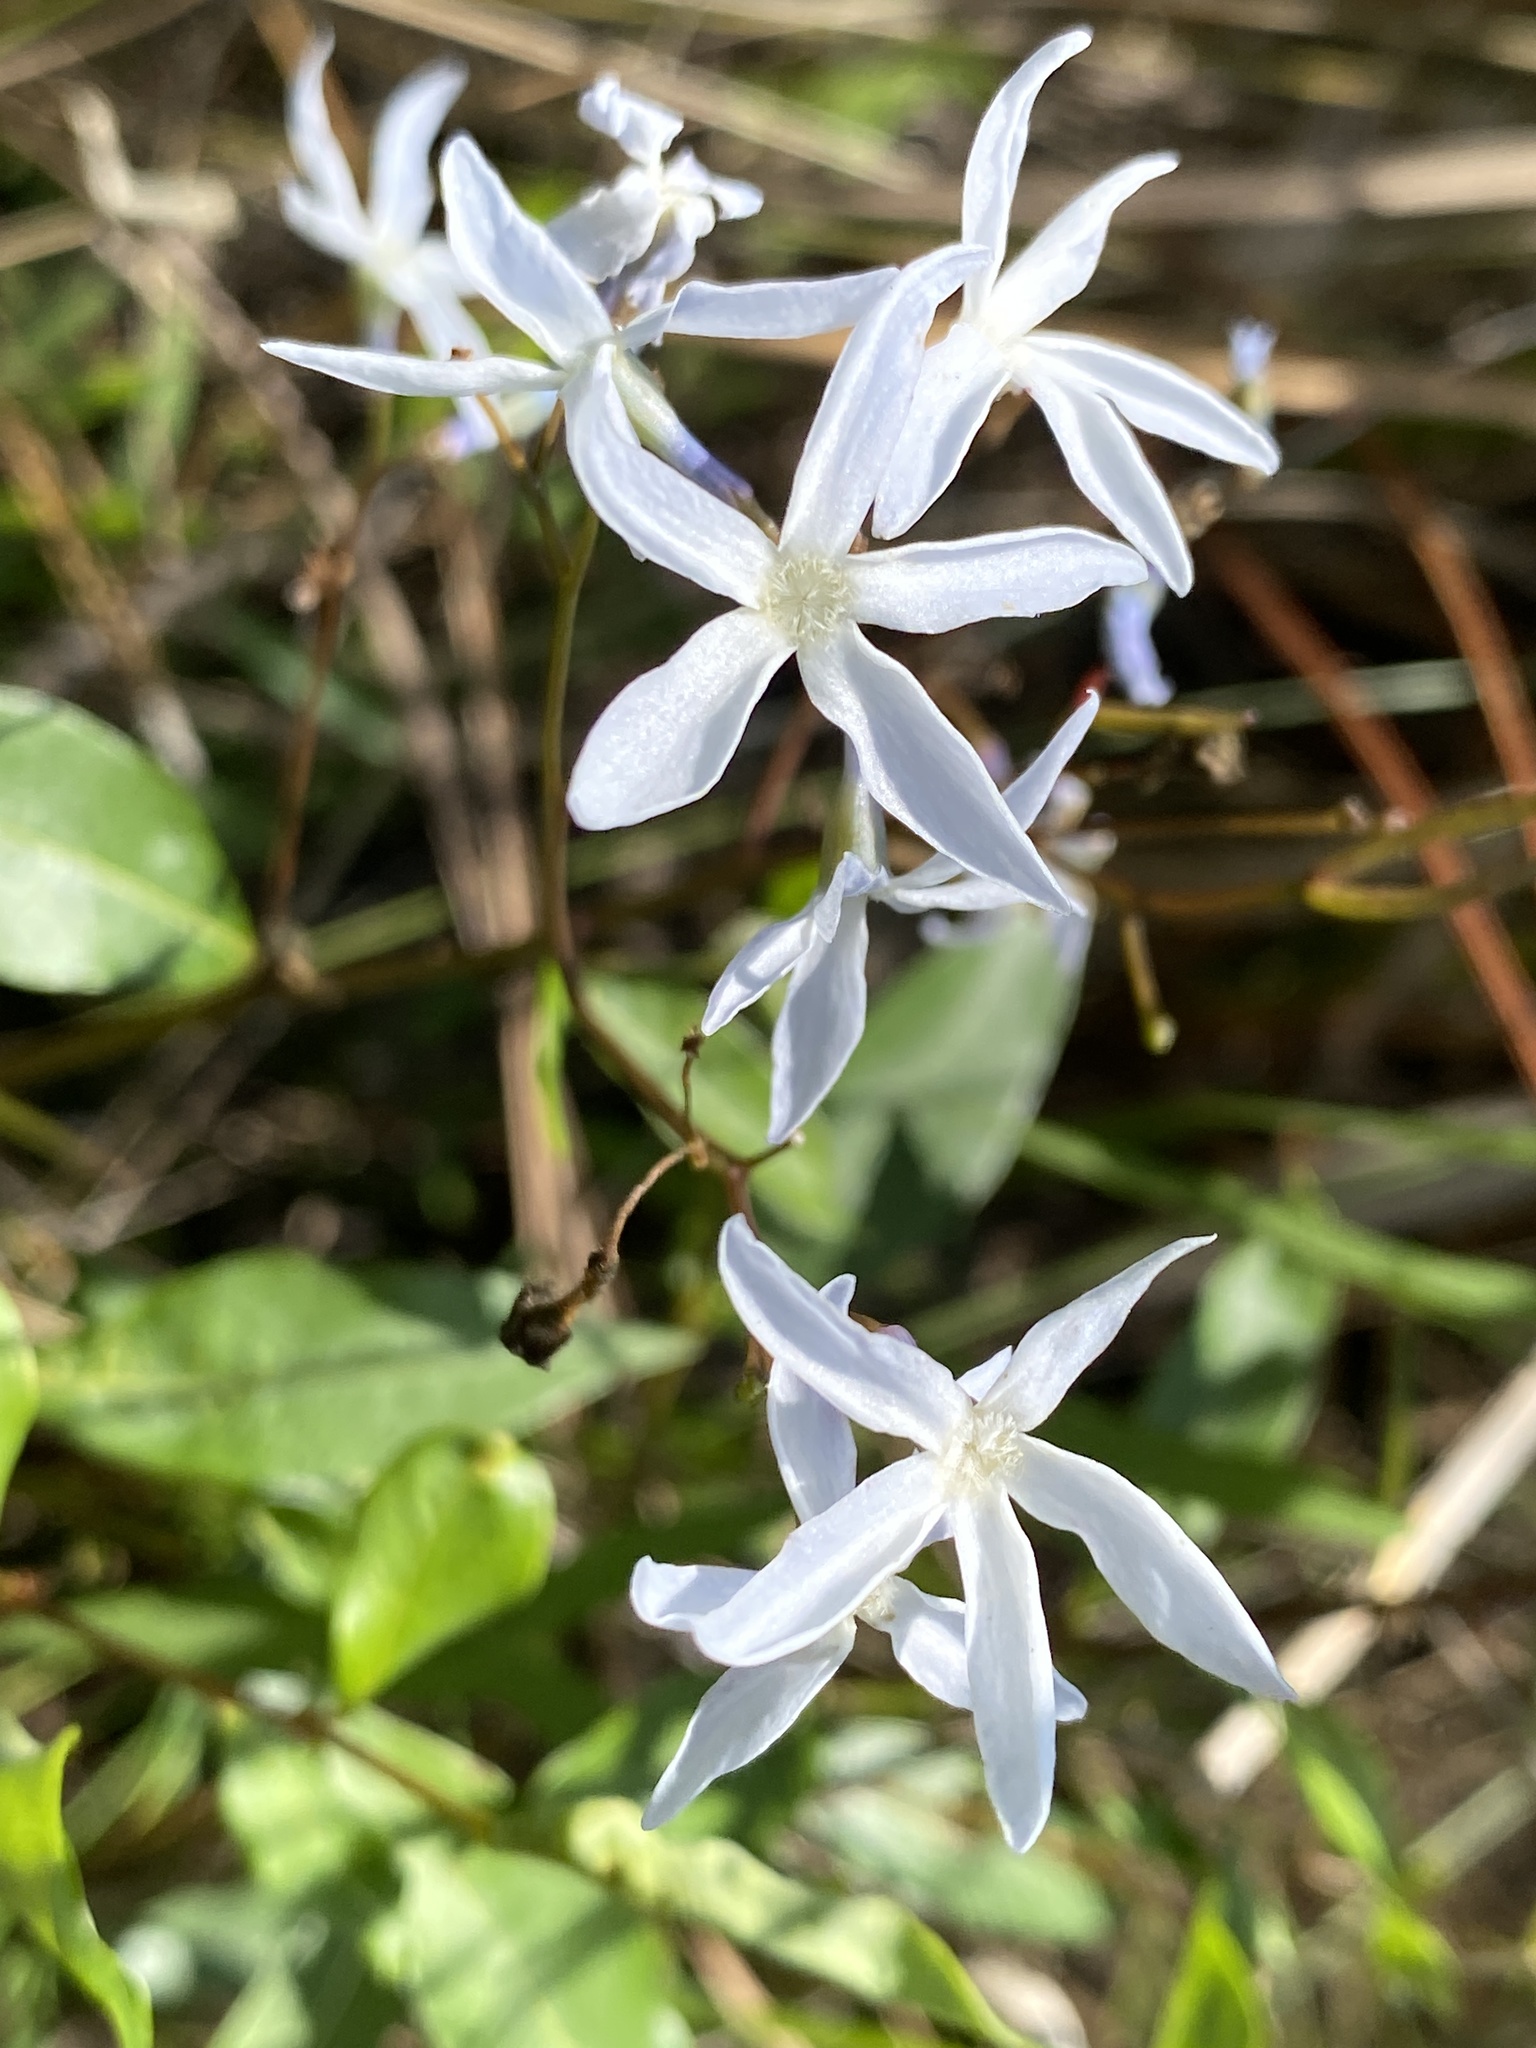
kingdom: Plantae
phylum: Tracheophyta
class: Magnoliopsida
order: Gentianales
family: Apocynaceae
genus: Amsonia
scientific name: Amsonia rigida
